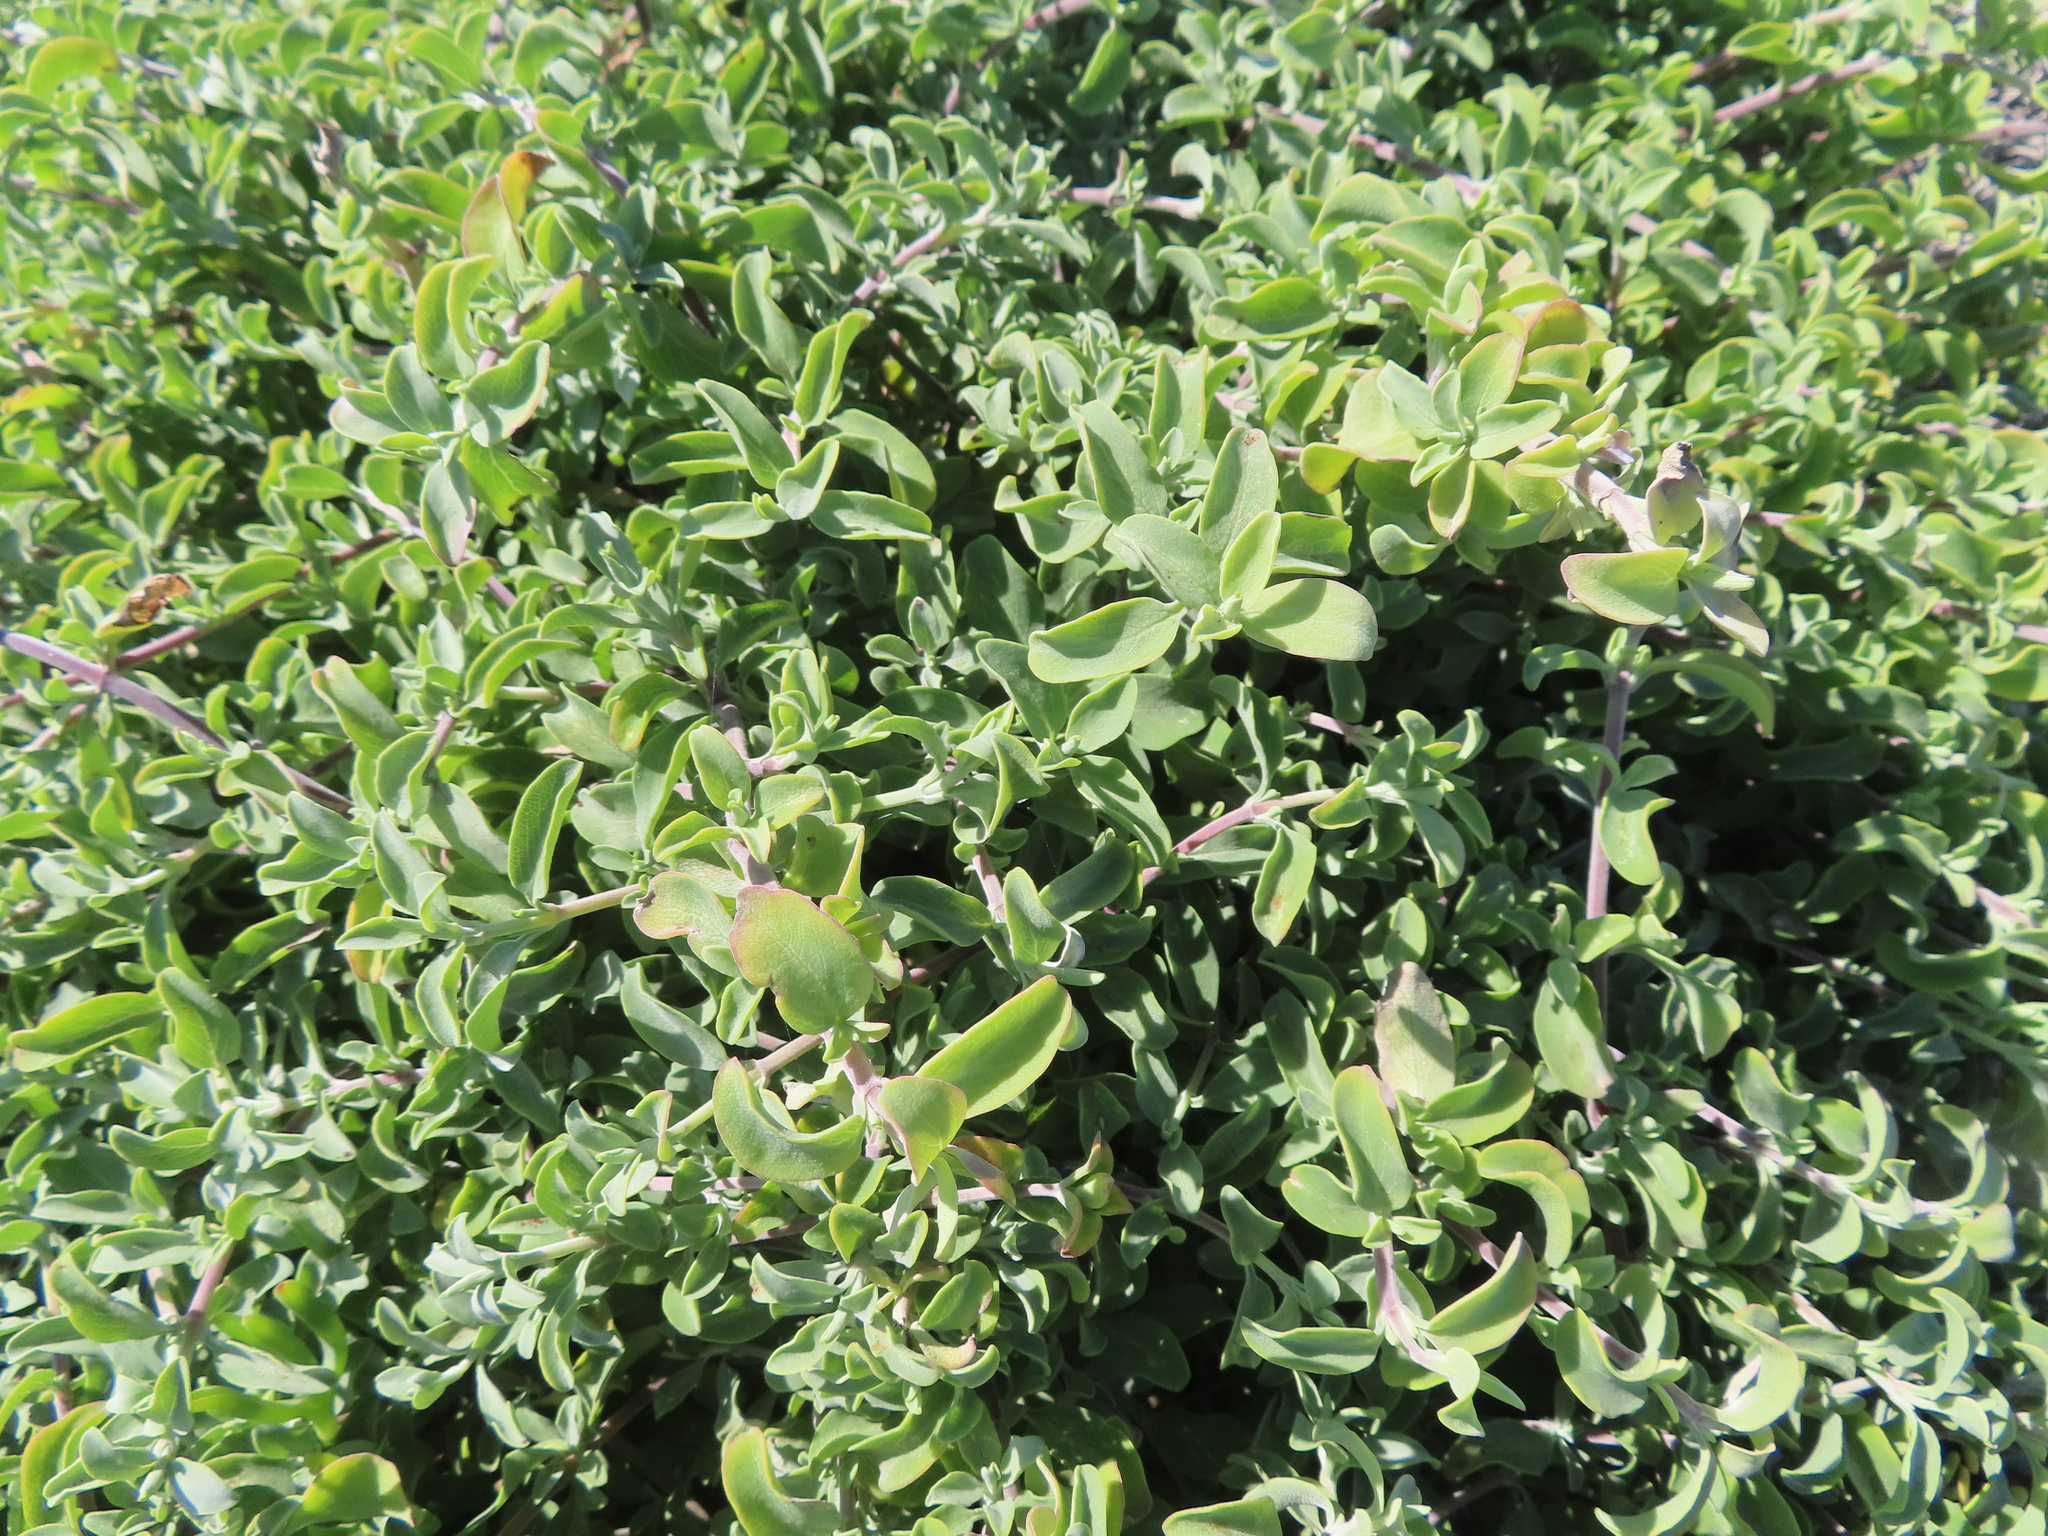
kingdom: Plantae
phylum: Tracheophyta
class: Magnoliopsida
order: Lamiales
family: Lamiaceae
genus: Salvia
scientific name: Salvia aurea
